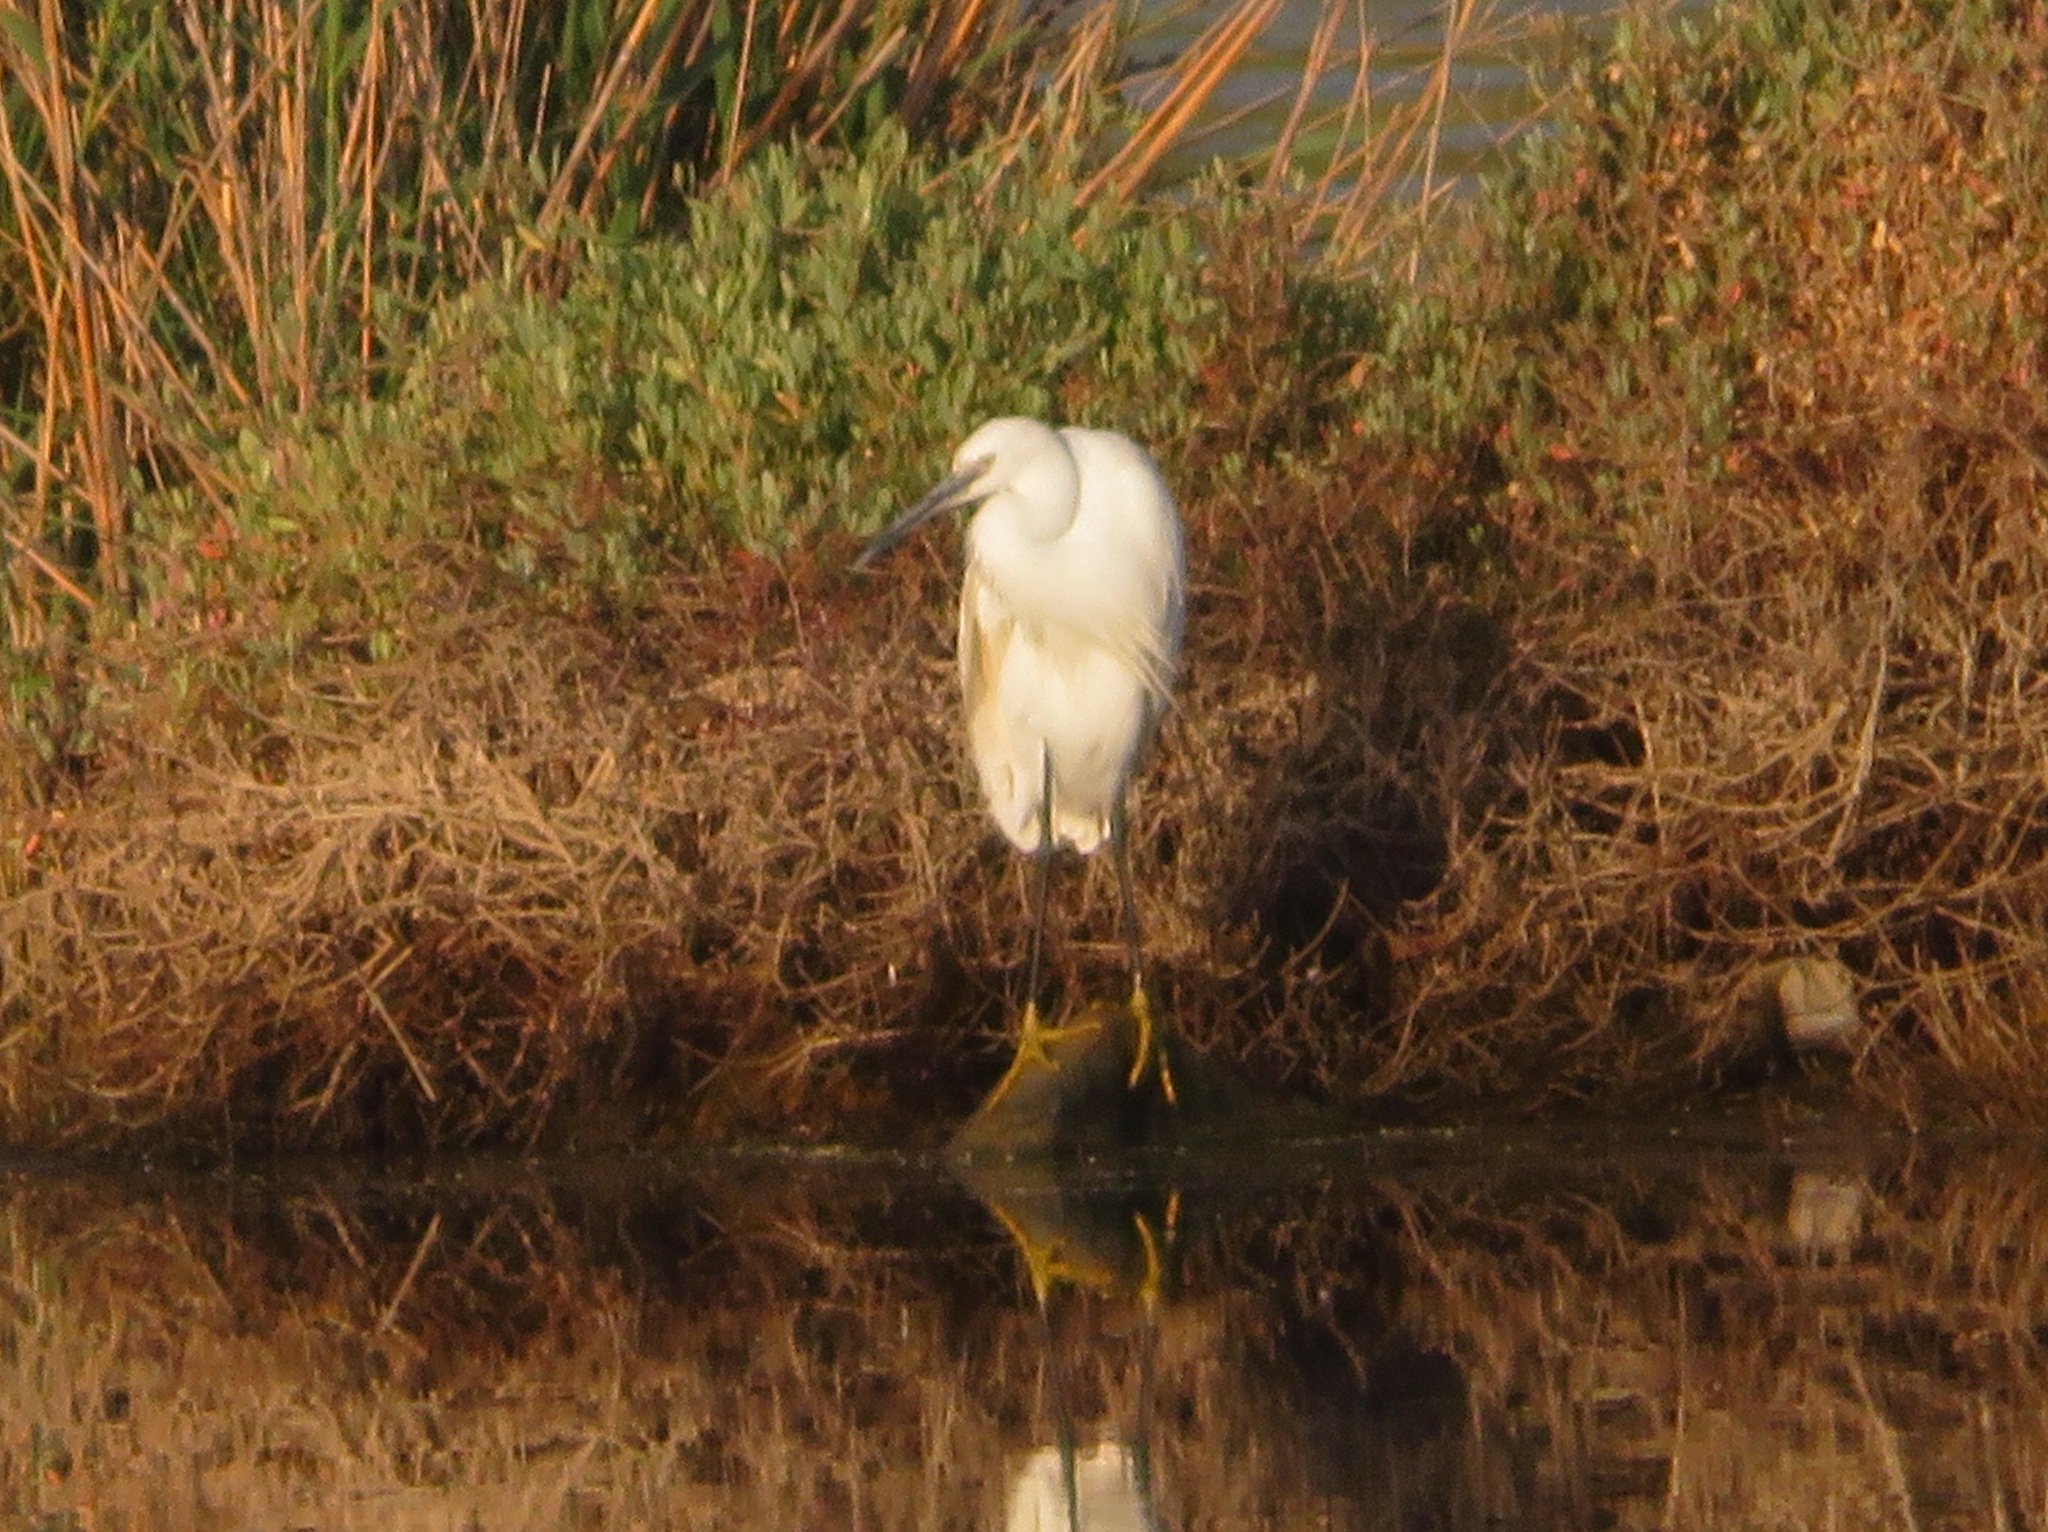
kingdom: Animalia
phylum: Chordata
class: Aves
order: Pelecaniformes
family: Ardeidae
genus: Egretta
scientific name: Egretta garzetta
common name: Little egret
